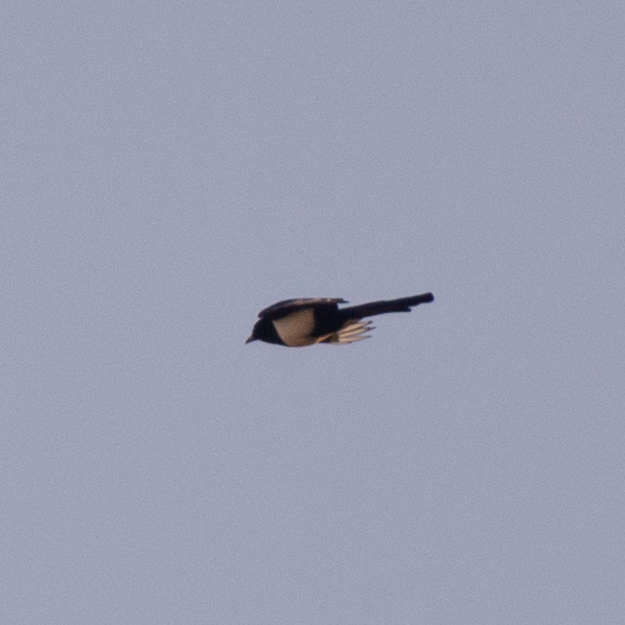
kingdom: Animalia
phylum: Chordata
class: Aves
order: Passeriformes
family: Corvidae
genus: Pica
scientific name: Pica pica
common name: Eurasian magpie
